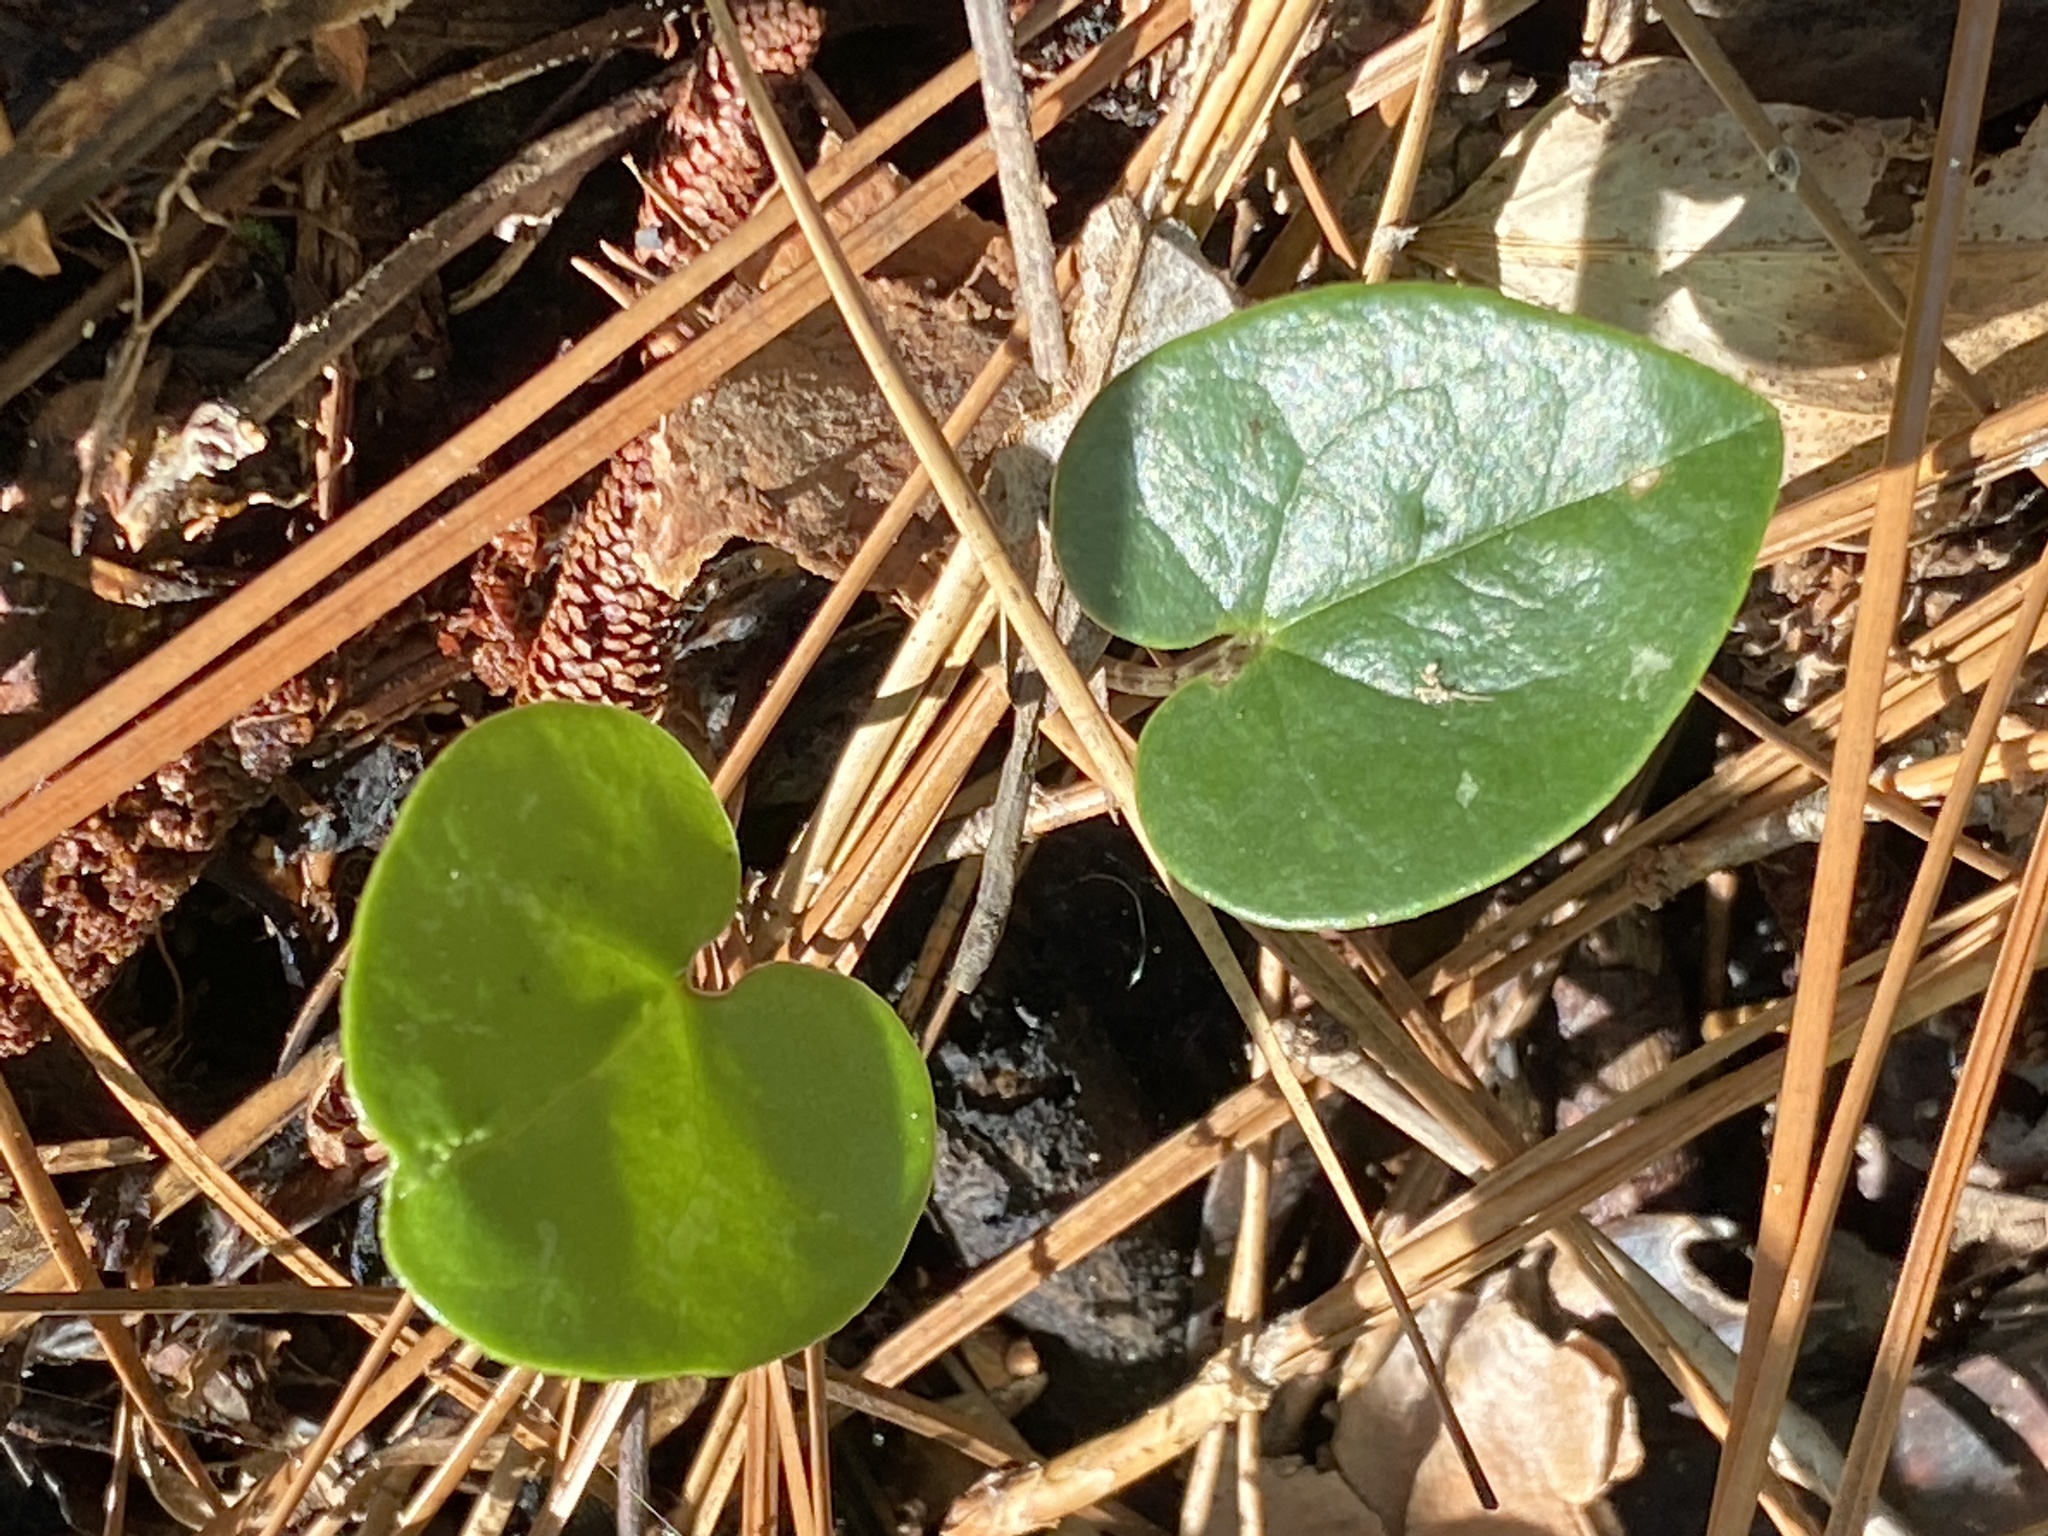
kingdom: Plantae
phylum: Tracheophyta
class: Magnoliopsida
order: Piperales
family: Aristolochiaceae
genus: Hexastylis
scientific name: Hexastylis sorriei
